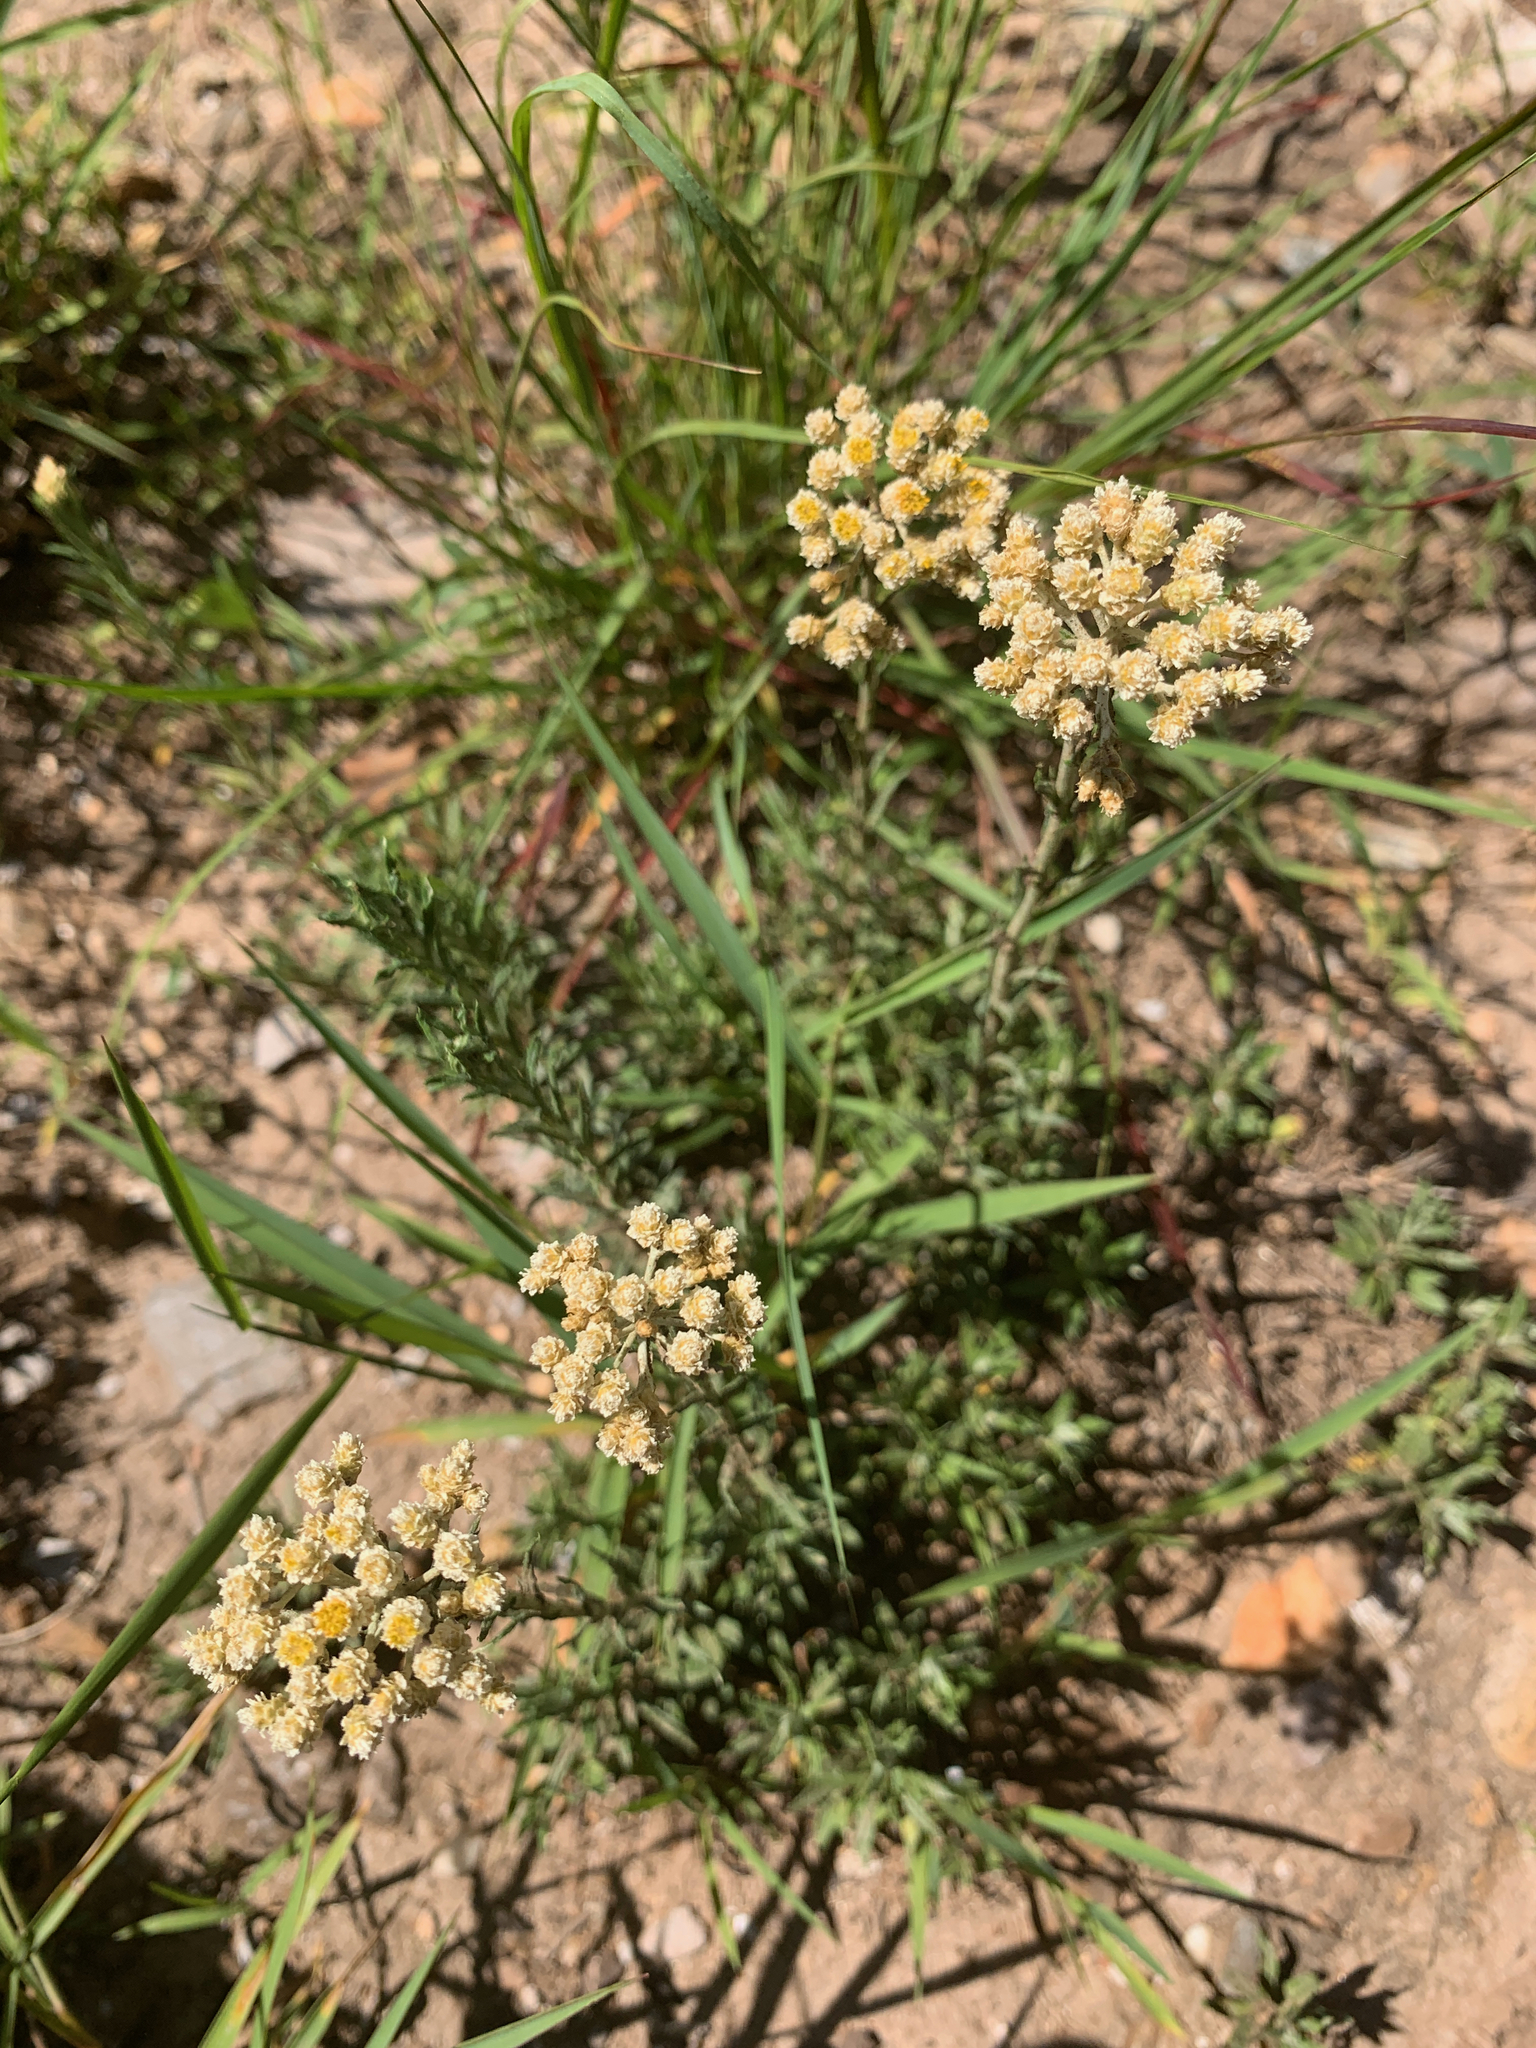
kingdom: Plantae
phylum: Tracheophyta
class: Magnoliopsida
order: Asterales
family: Asteraceae
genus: Helichrysum
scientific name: Helichrysum rugulosum
